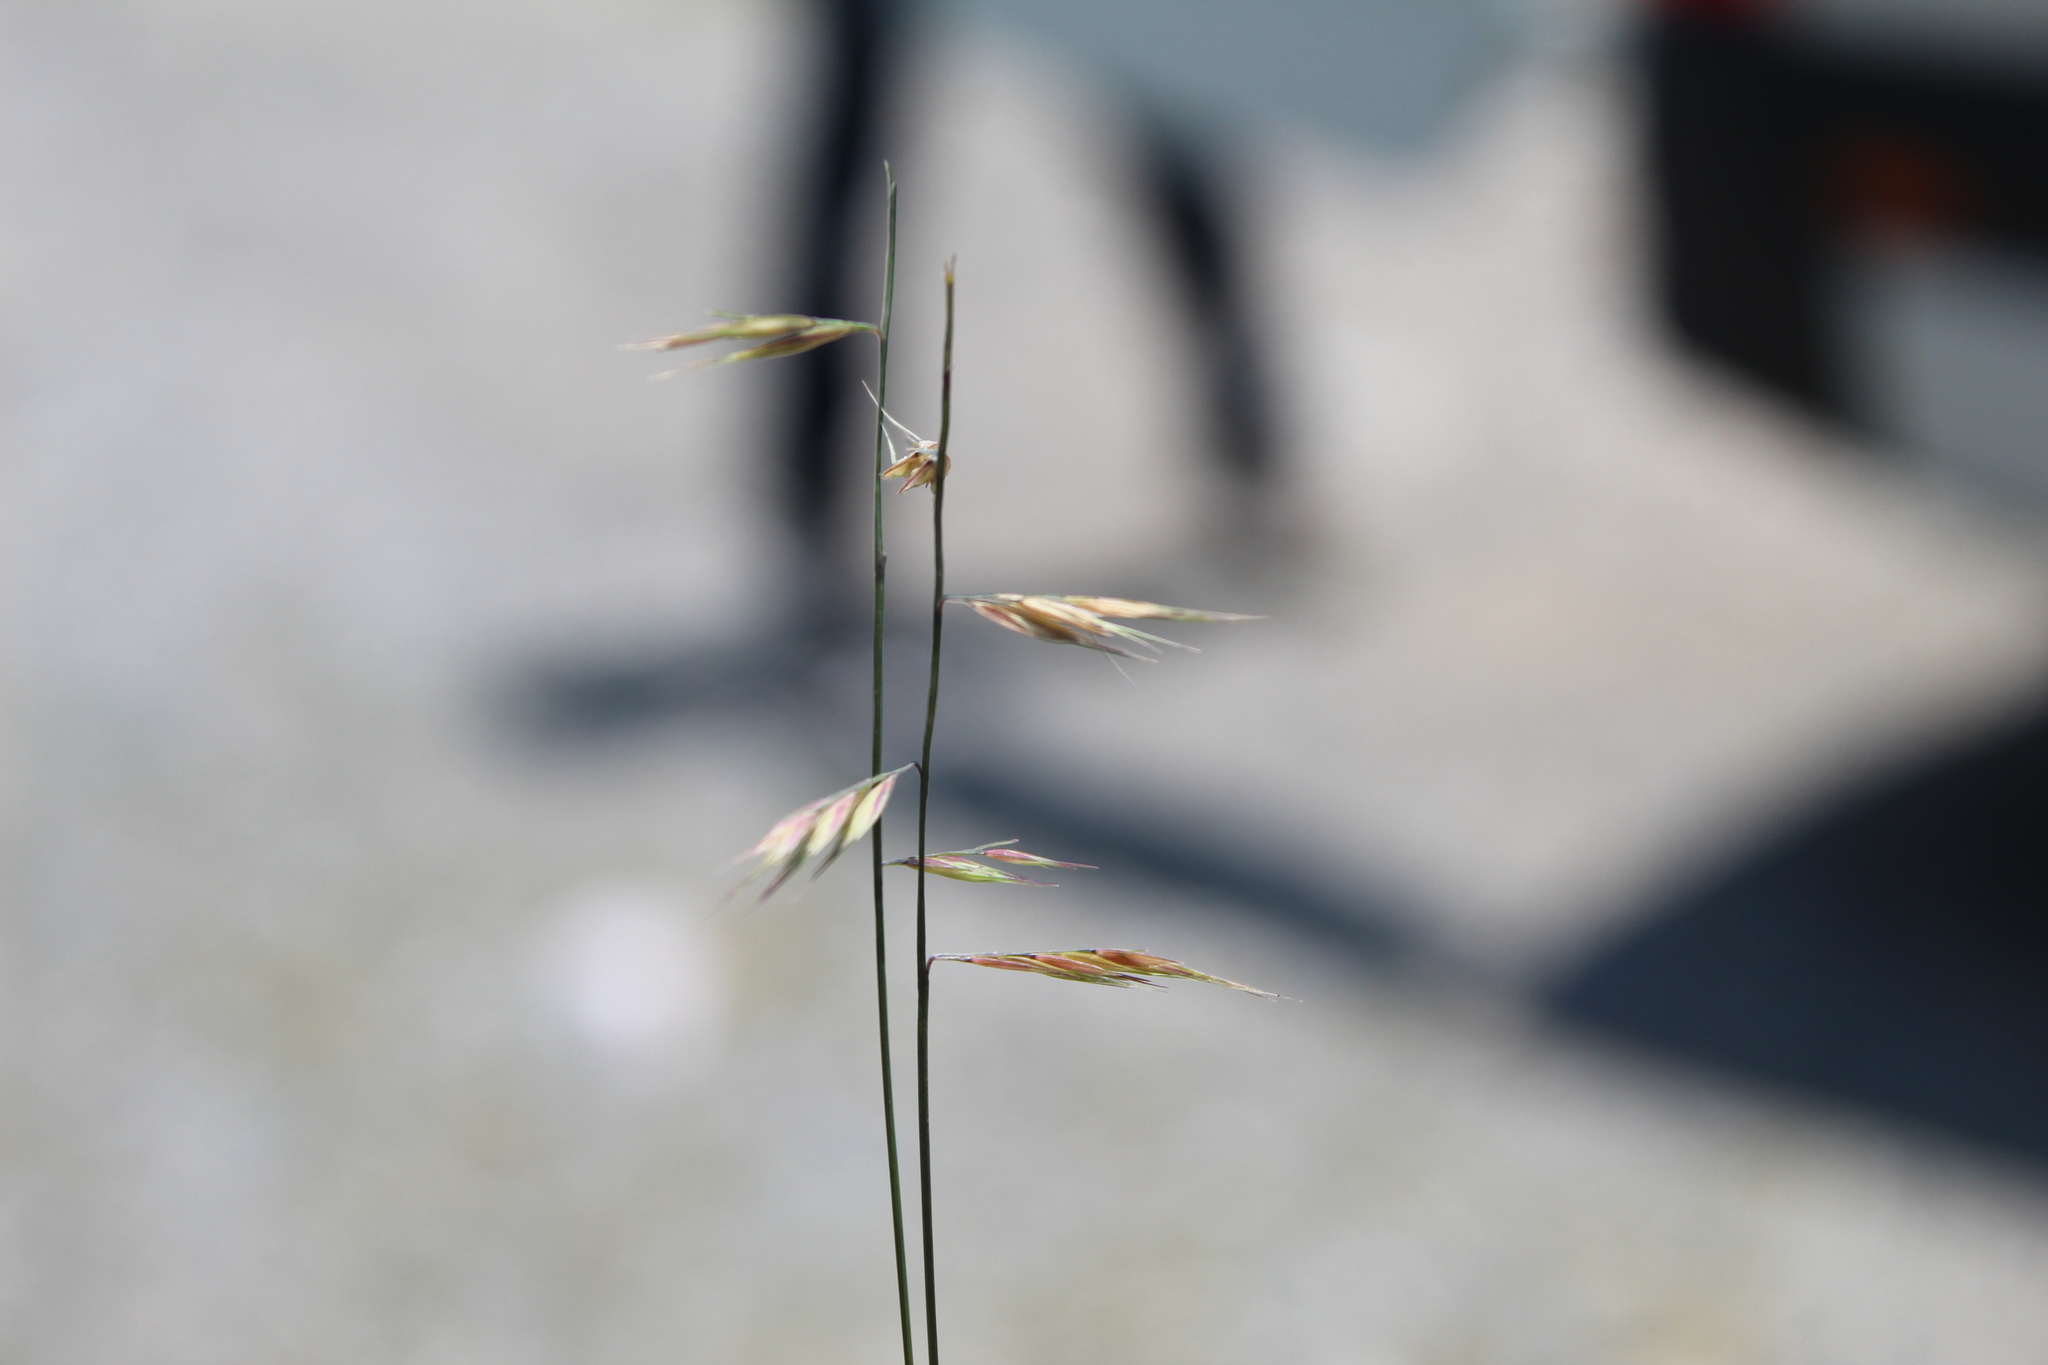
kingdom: Plantae
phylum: Tracheophyta
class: Liliopsida
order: Poales
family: Poaceae
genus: Bouteloua
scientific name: Bouteloua curtipendula
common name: Side-oats grama
